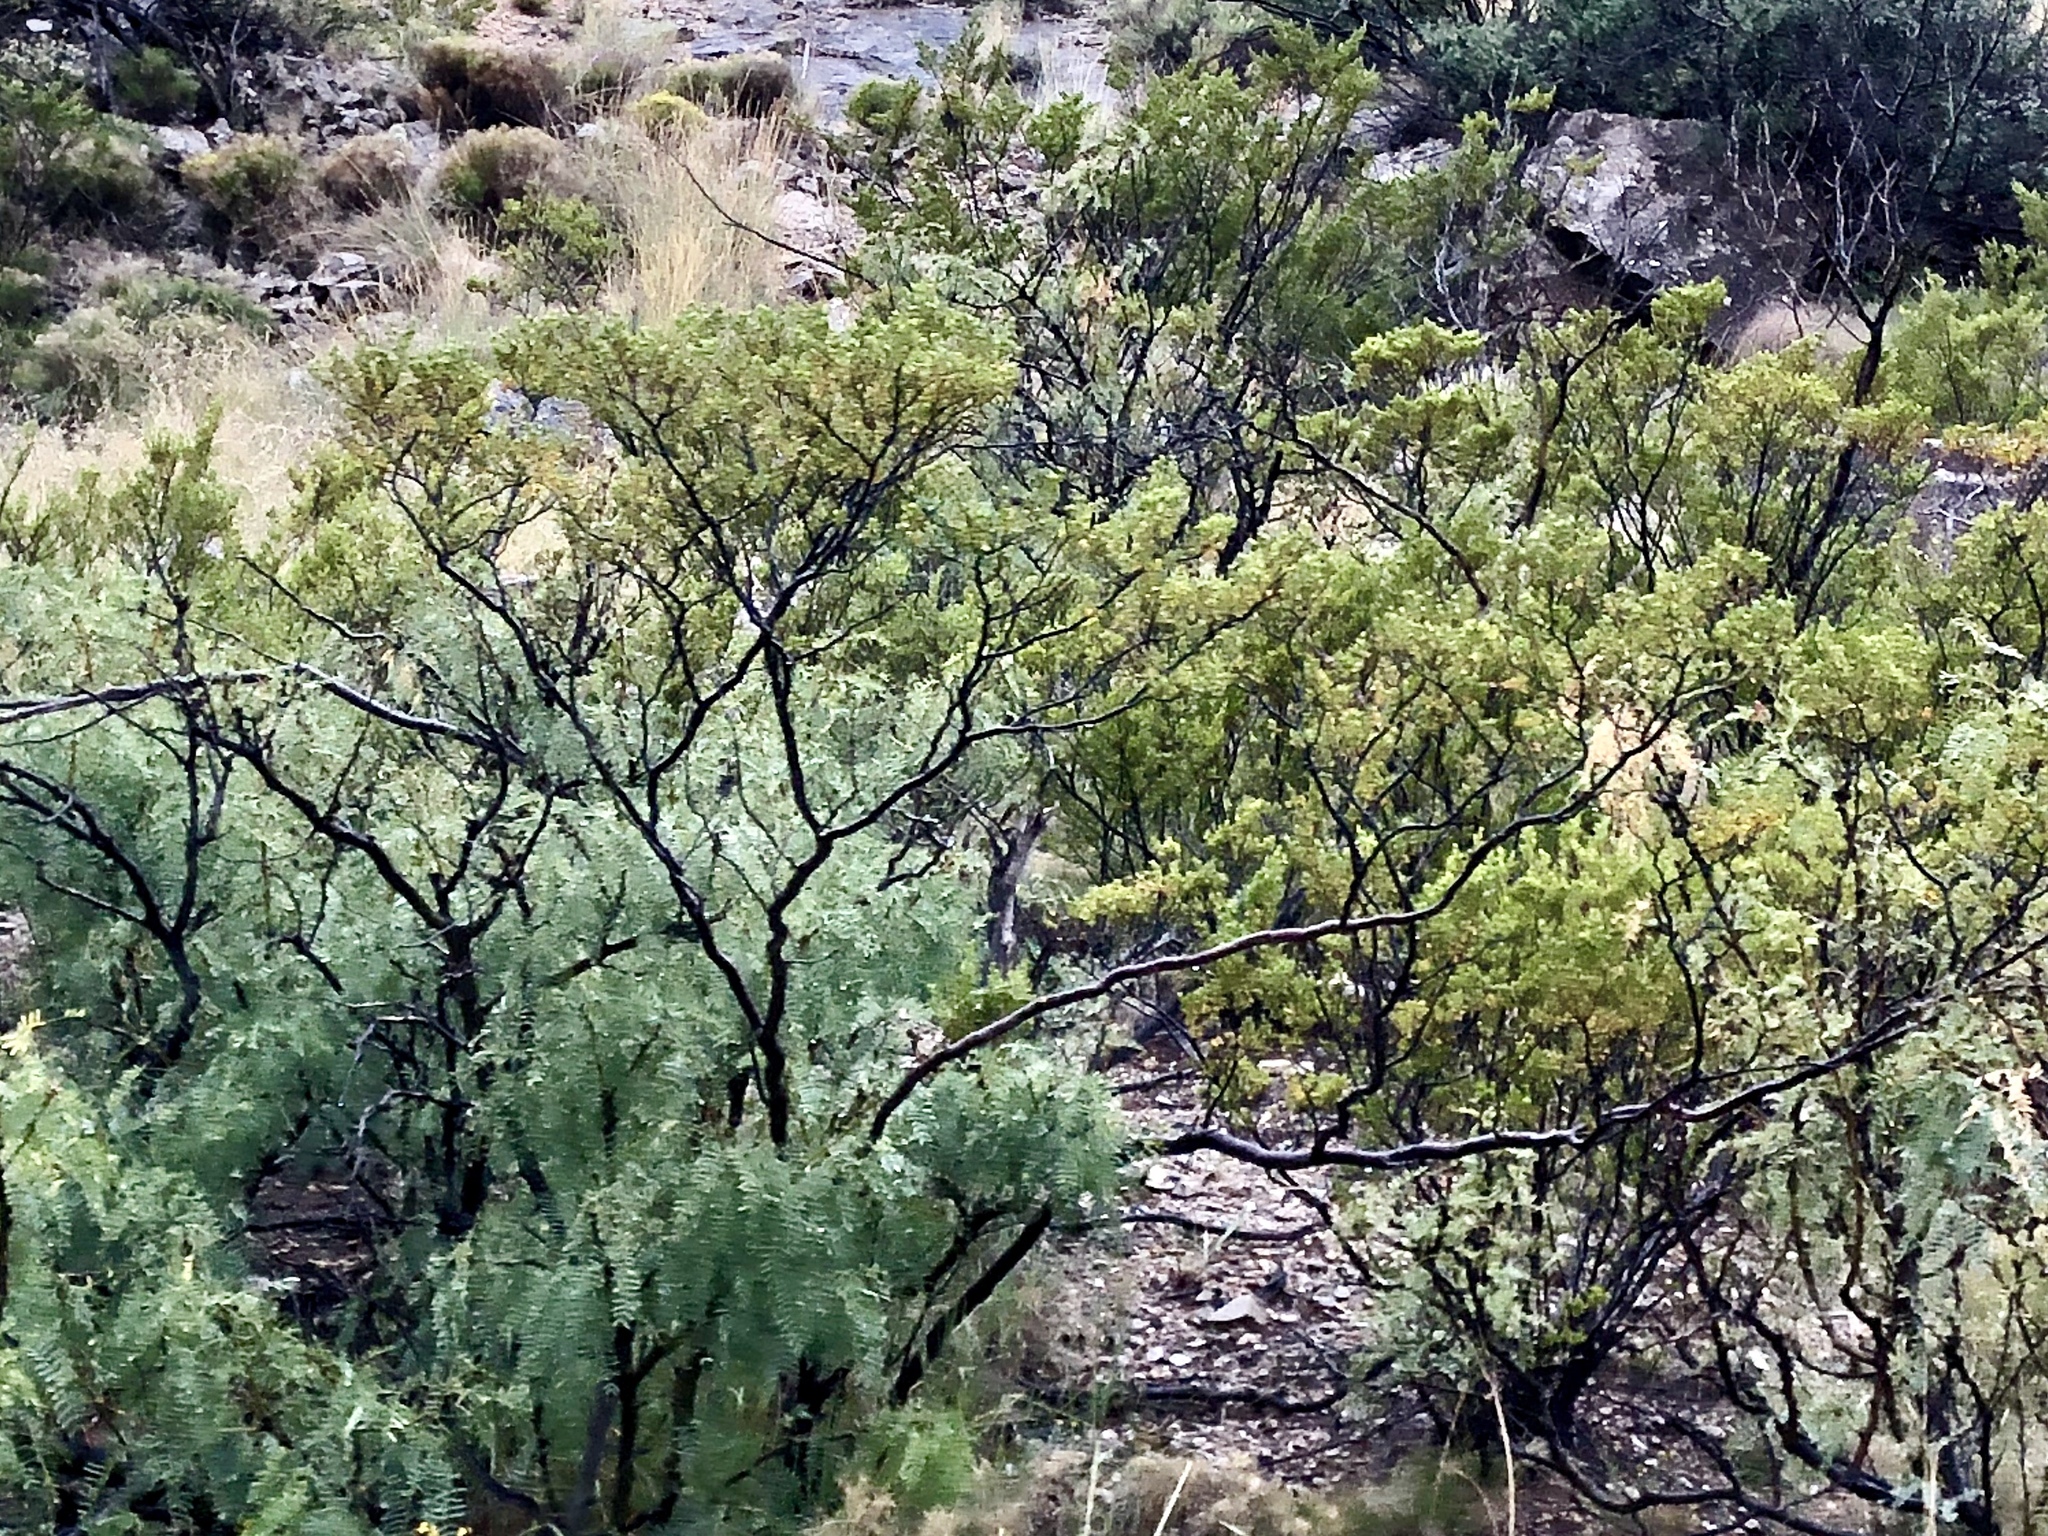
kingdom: Plantae
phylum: Tracheophyta
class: Magnoliopsida
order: Zygophyllales
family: Zygophyllaceae
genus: Larrea
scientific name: Larrea tridentata
